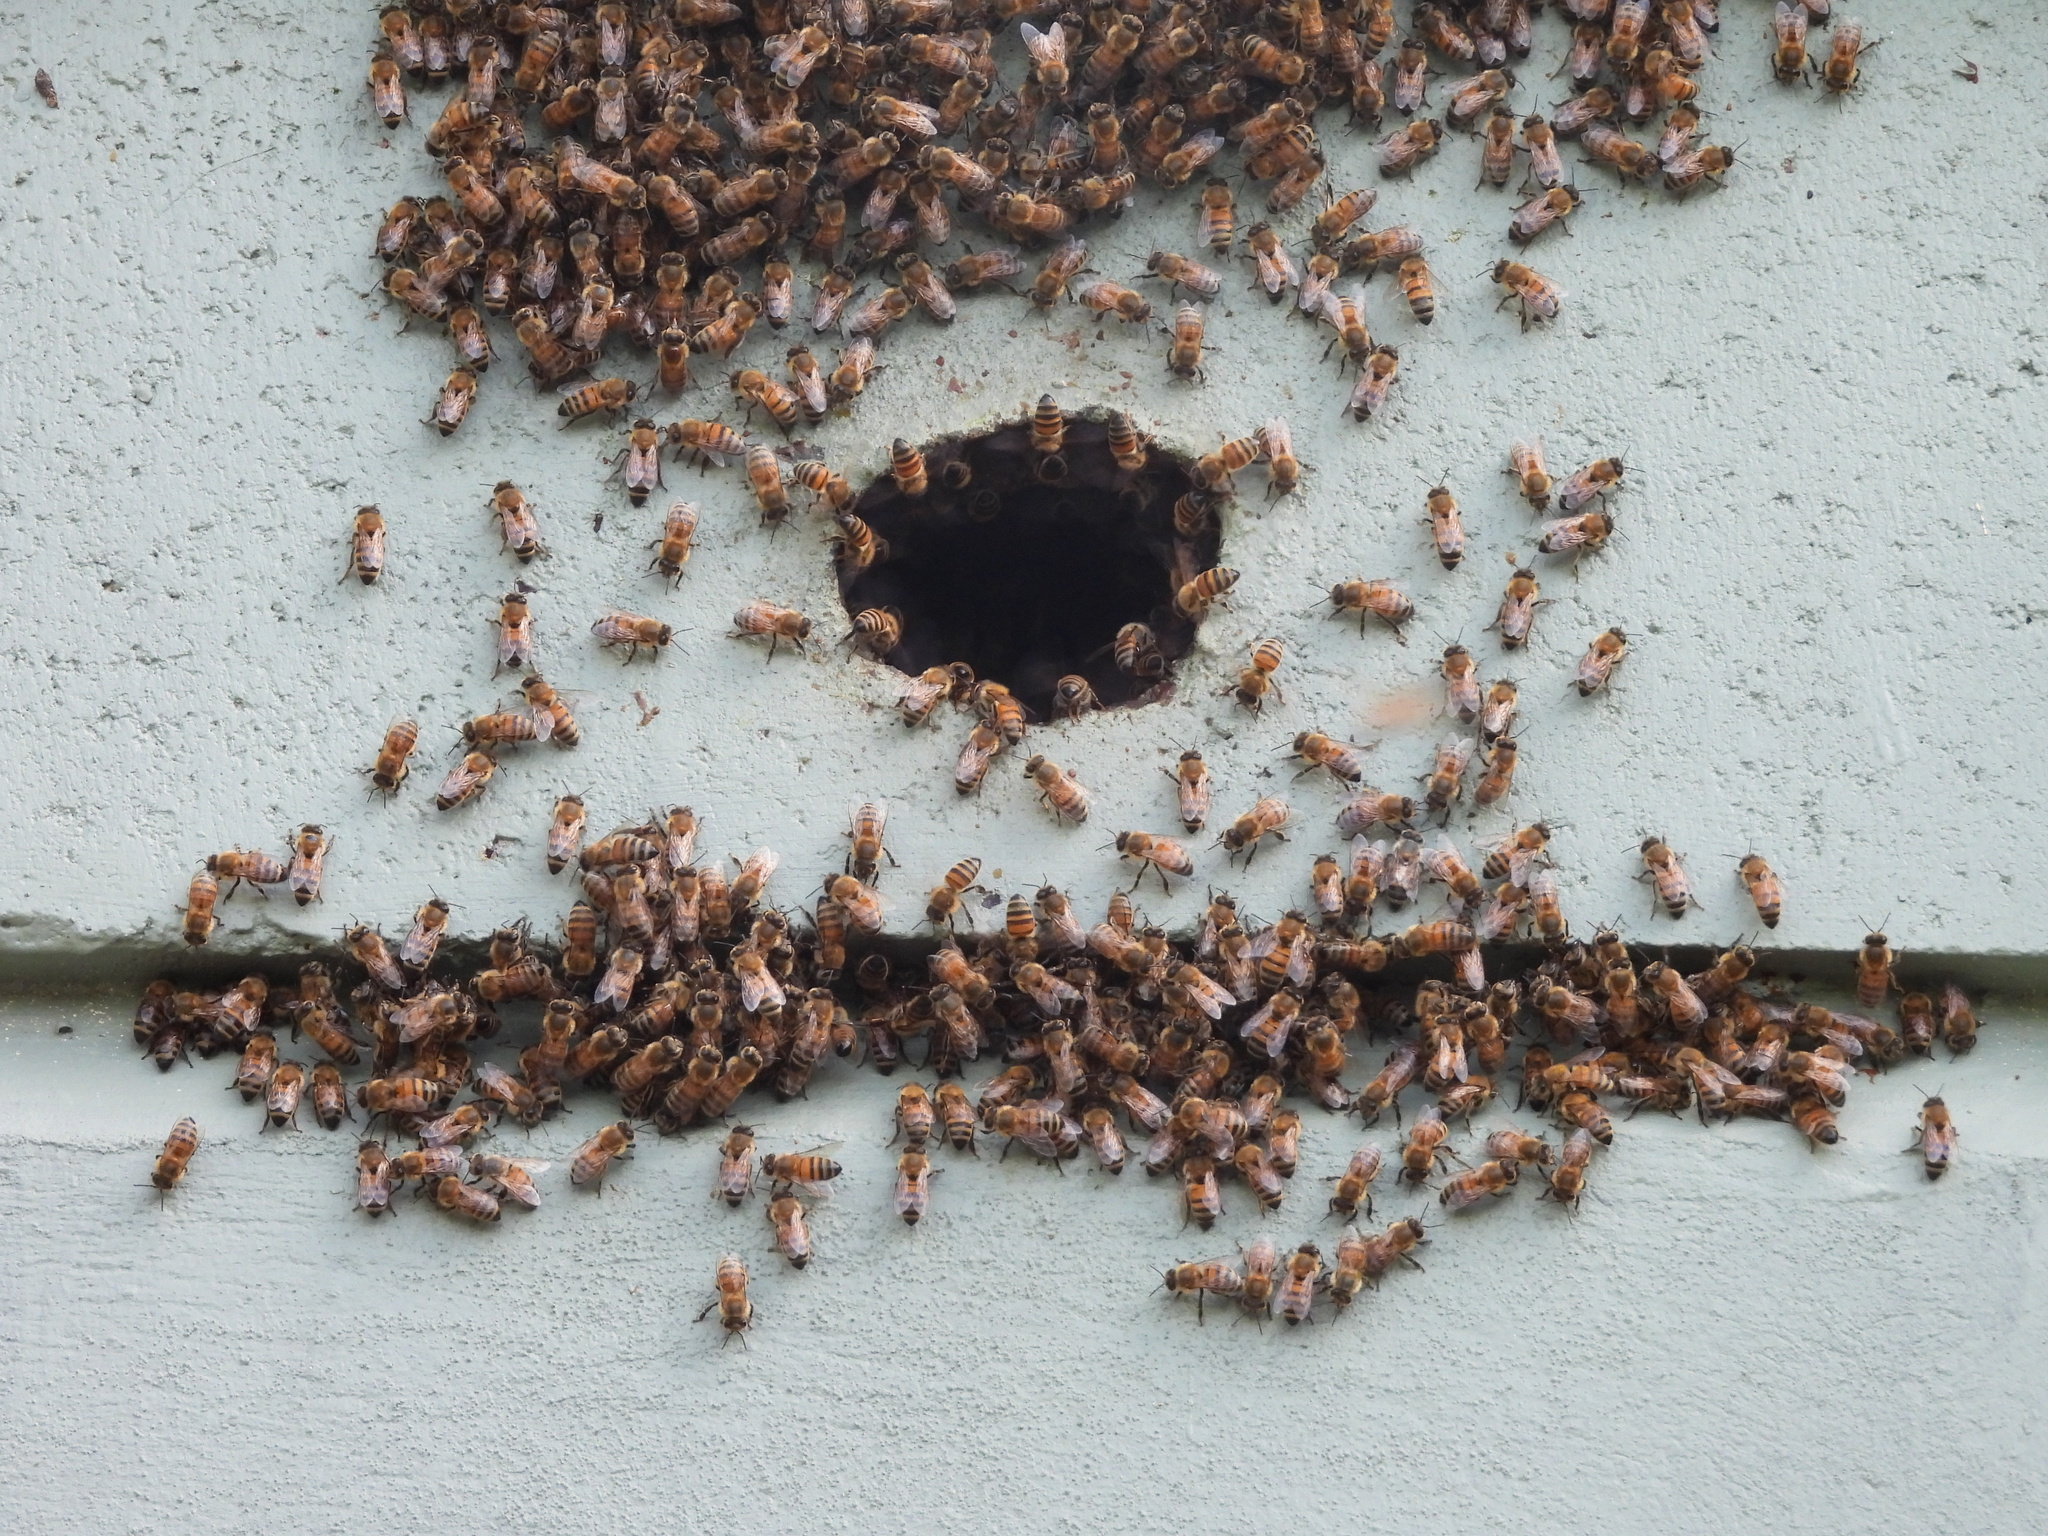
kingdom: Animalia
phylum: Arthropoda
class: Insecta
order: Hymenoptera
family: Apidae
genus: Apis
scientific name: Apis mellifera
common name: Honey bee
